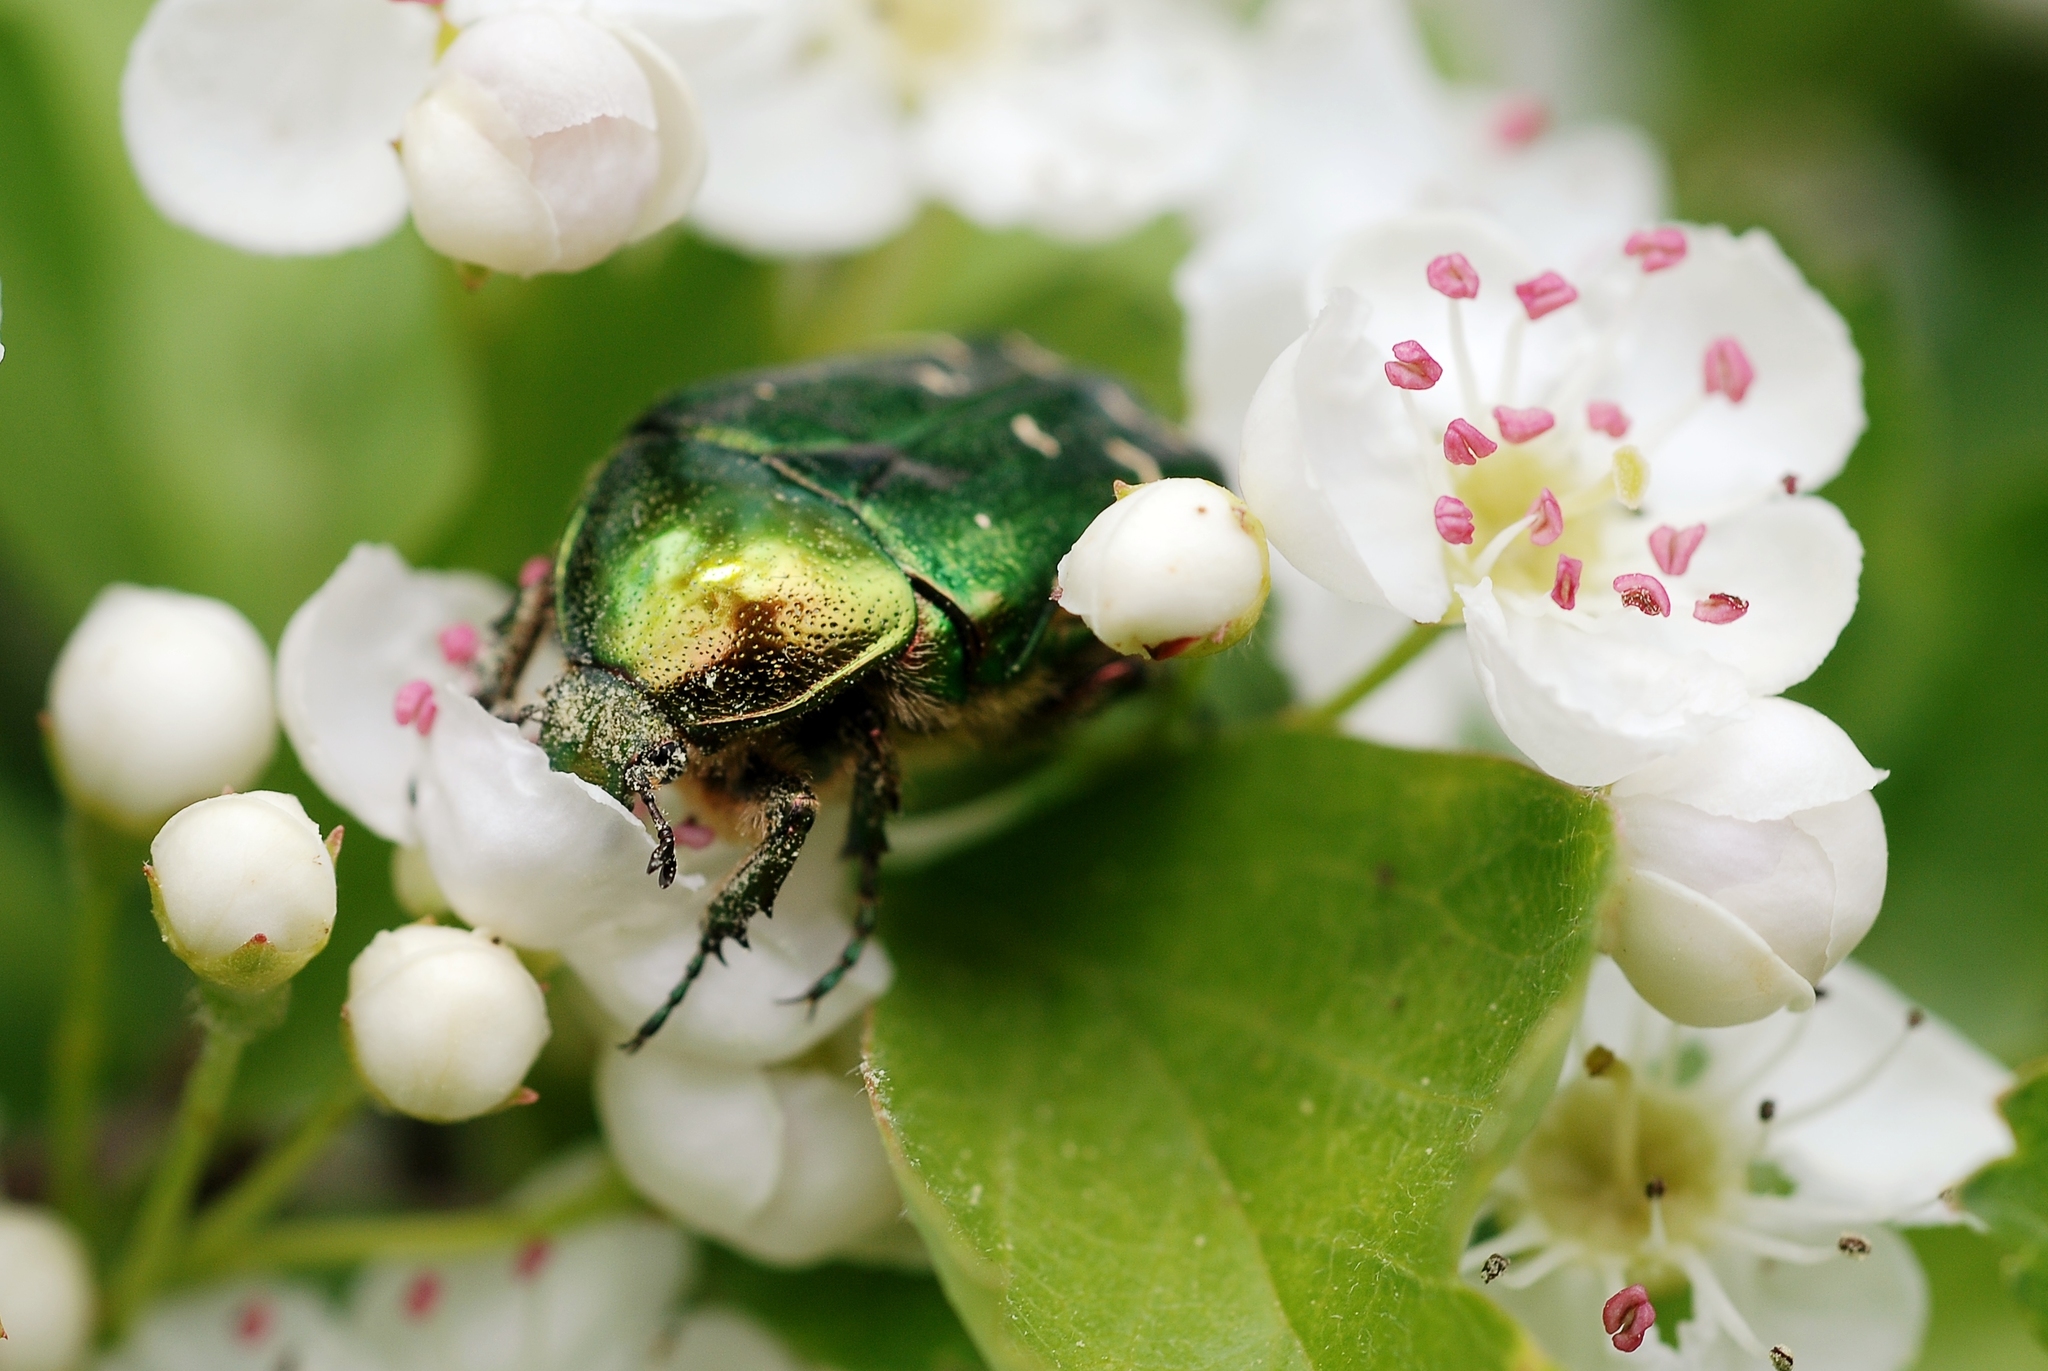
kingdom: Animalia
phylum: Arthropoda
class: Insecta
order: Coleoptera
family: Scarabaeidae
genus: Cetonia
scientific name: Cetonia aurata
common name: Rose chafer
